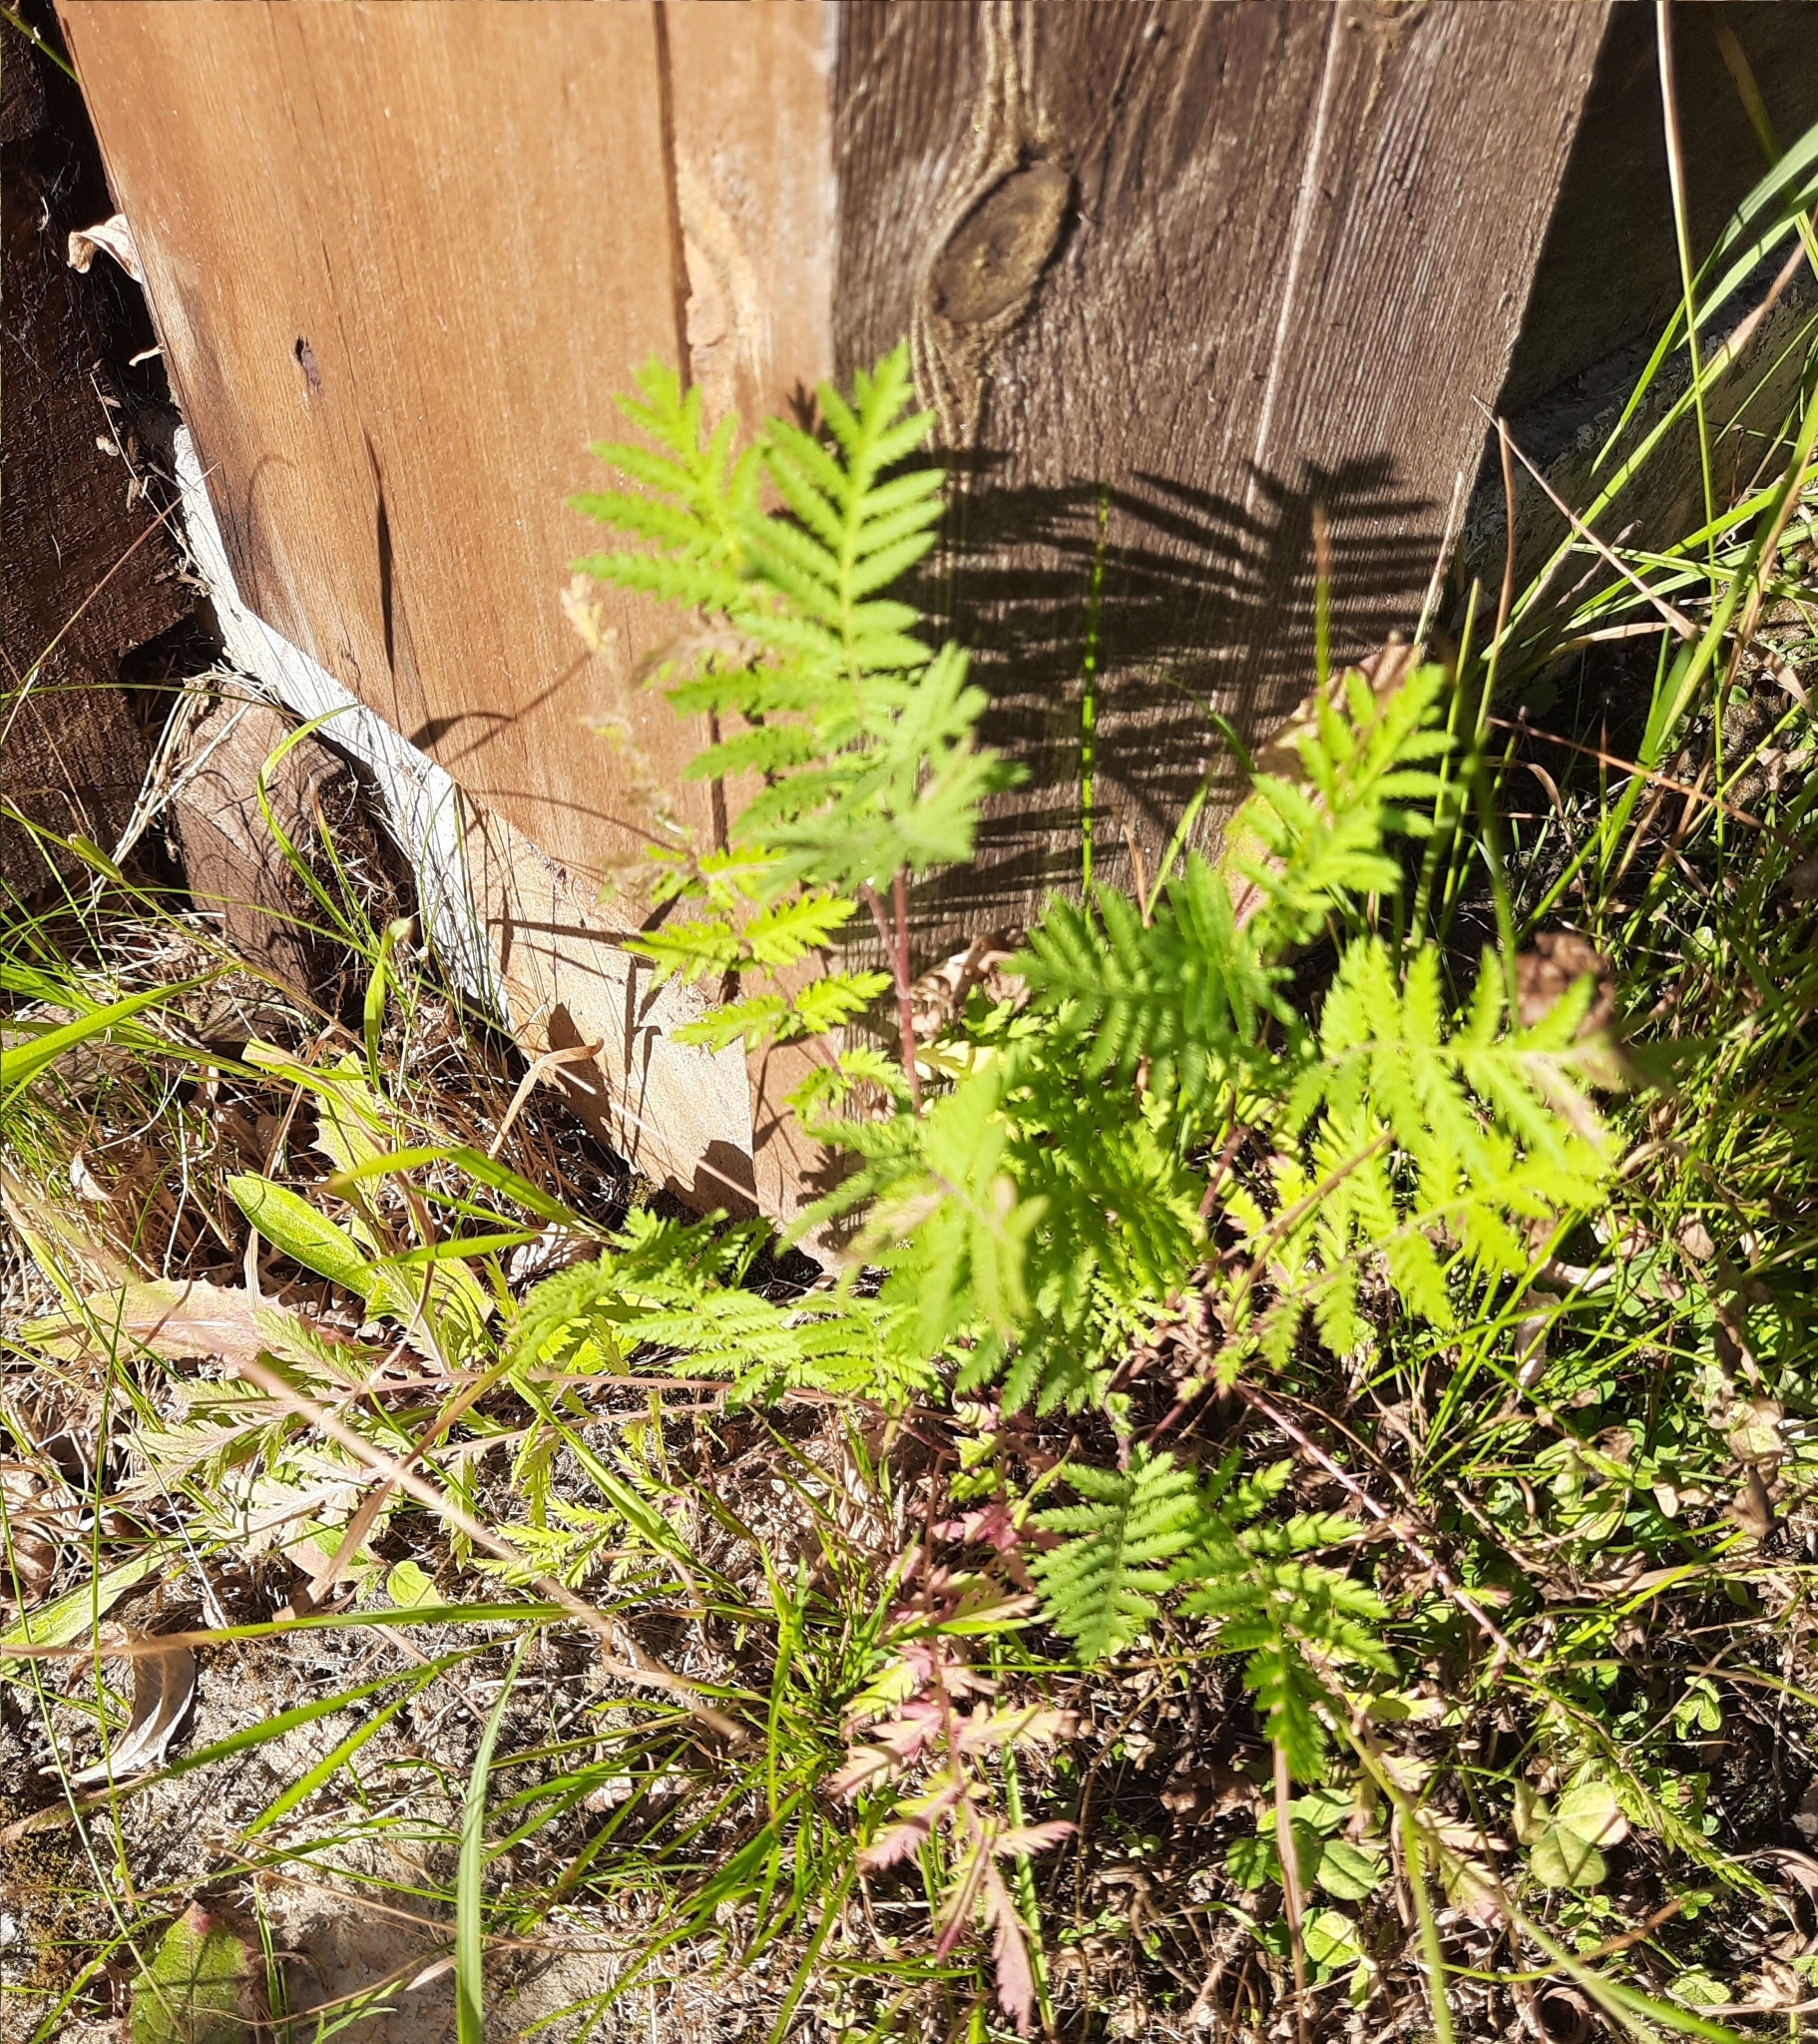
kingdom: Plantae
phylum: Tracheophyta
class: Magnoliopsida
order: Asterales
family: Asteraceae
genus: Tanacetum
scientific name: Tanacetum vulgare
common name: Common tansy
